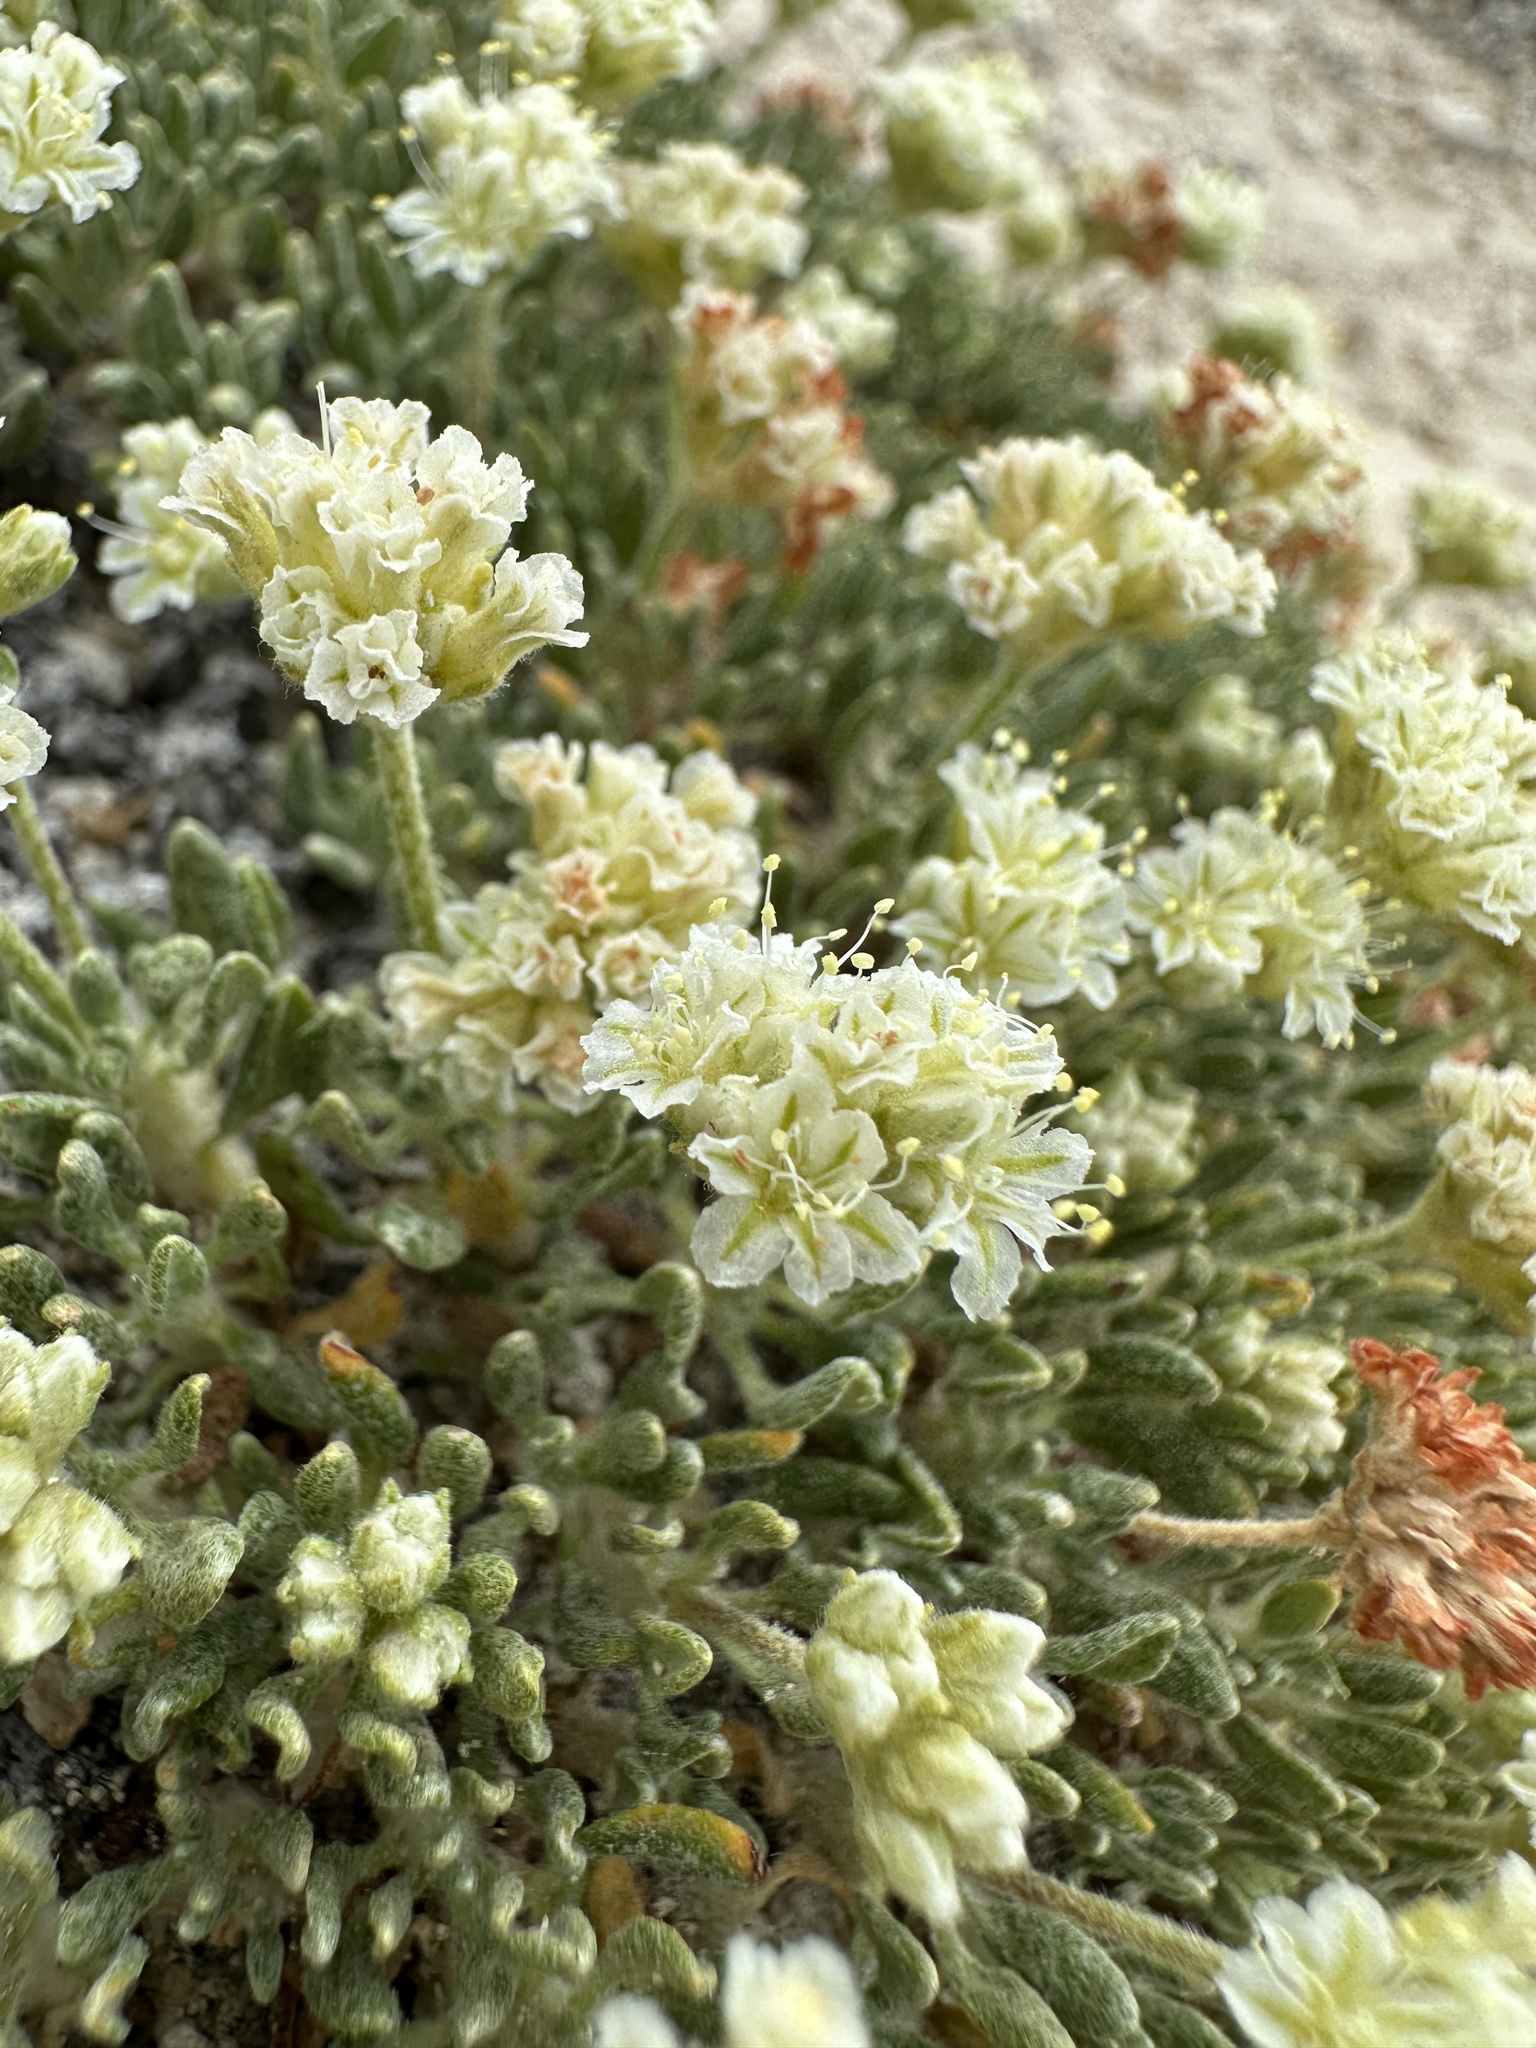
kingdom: Plantae
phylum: Tracheophyta
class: Magnoliopsida
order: Caryophyllales
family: Polygonaceae
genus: Eriogonum
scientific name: Eriogonum shockleyi
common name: Shockley's wild buckwheat
